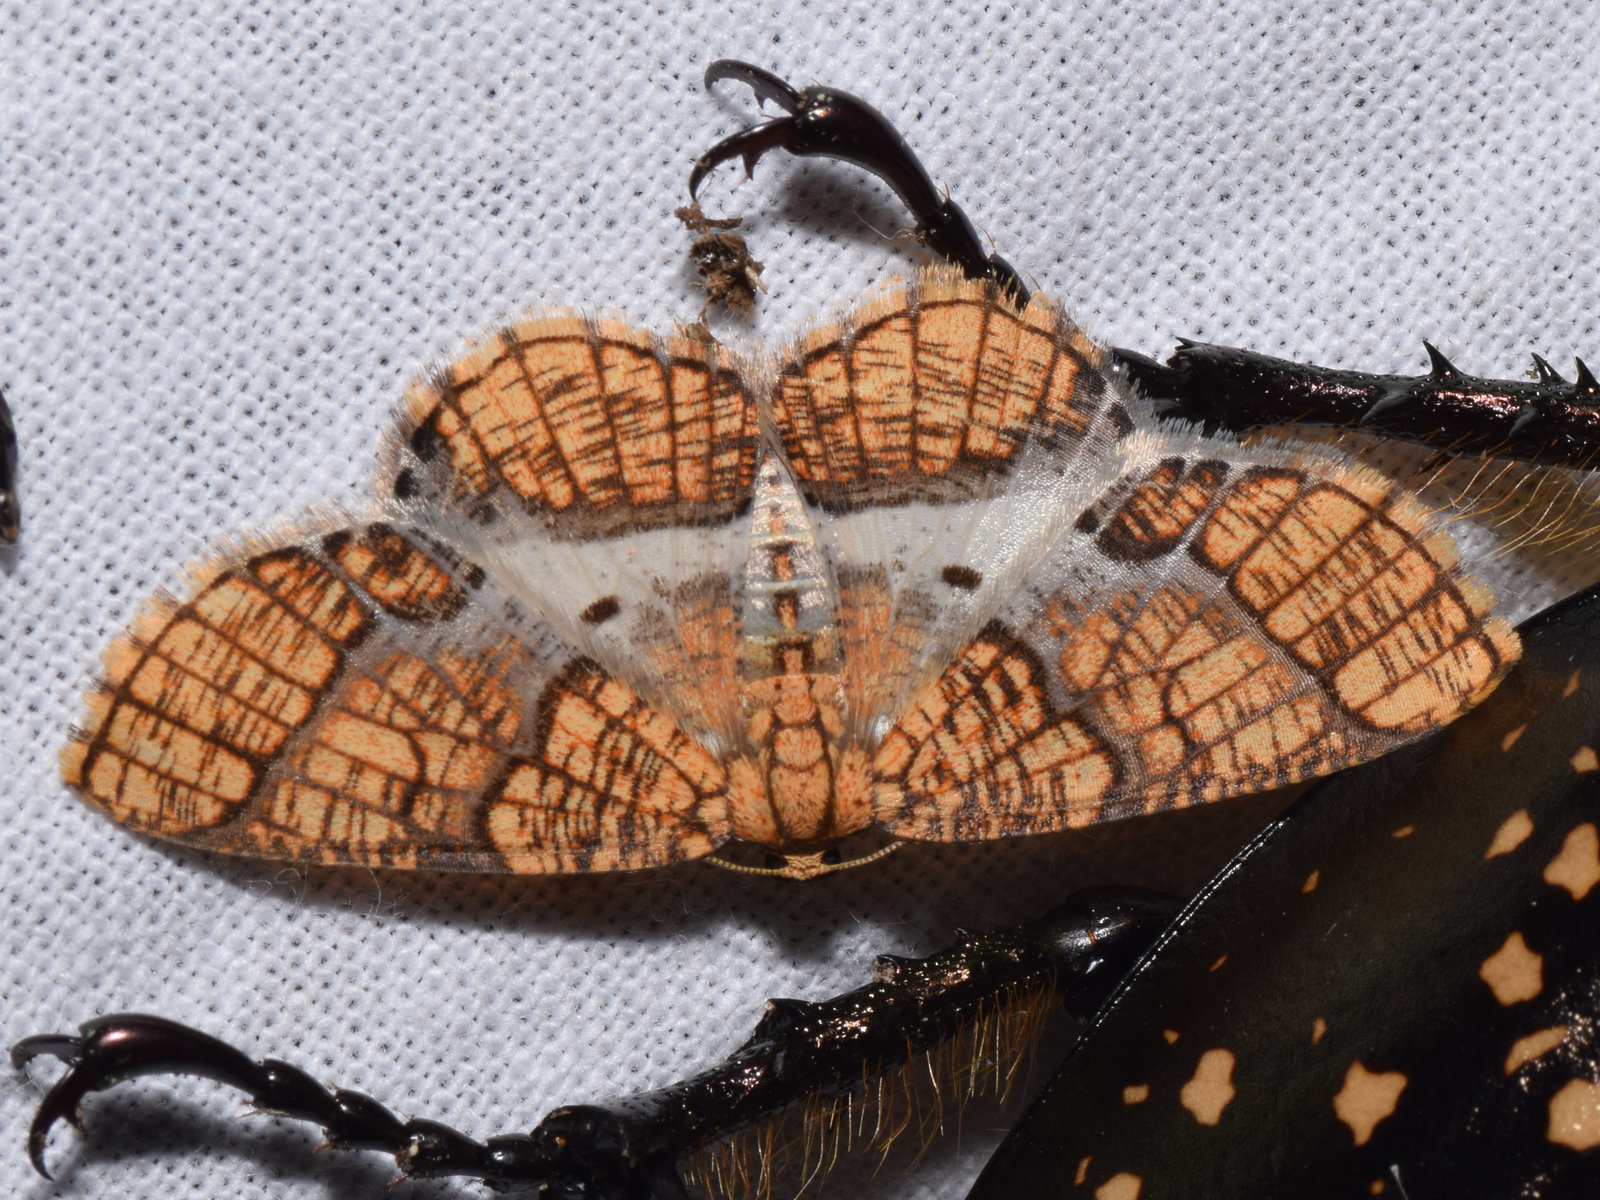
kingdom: Animalia
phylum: Arthropoda
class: Insecta
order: Lepidoptera
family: Geometridae
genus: Orthobrachia
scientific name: Orthobrachia latifasciata
